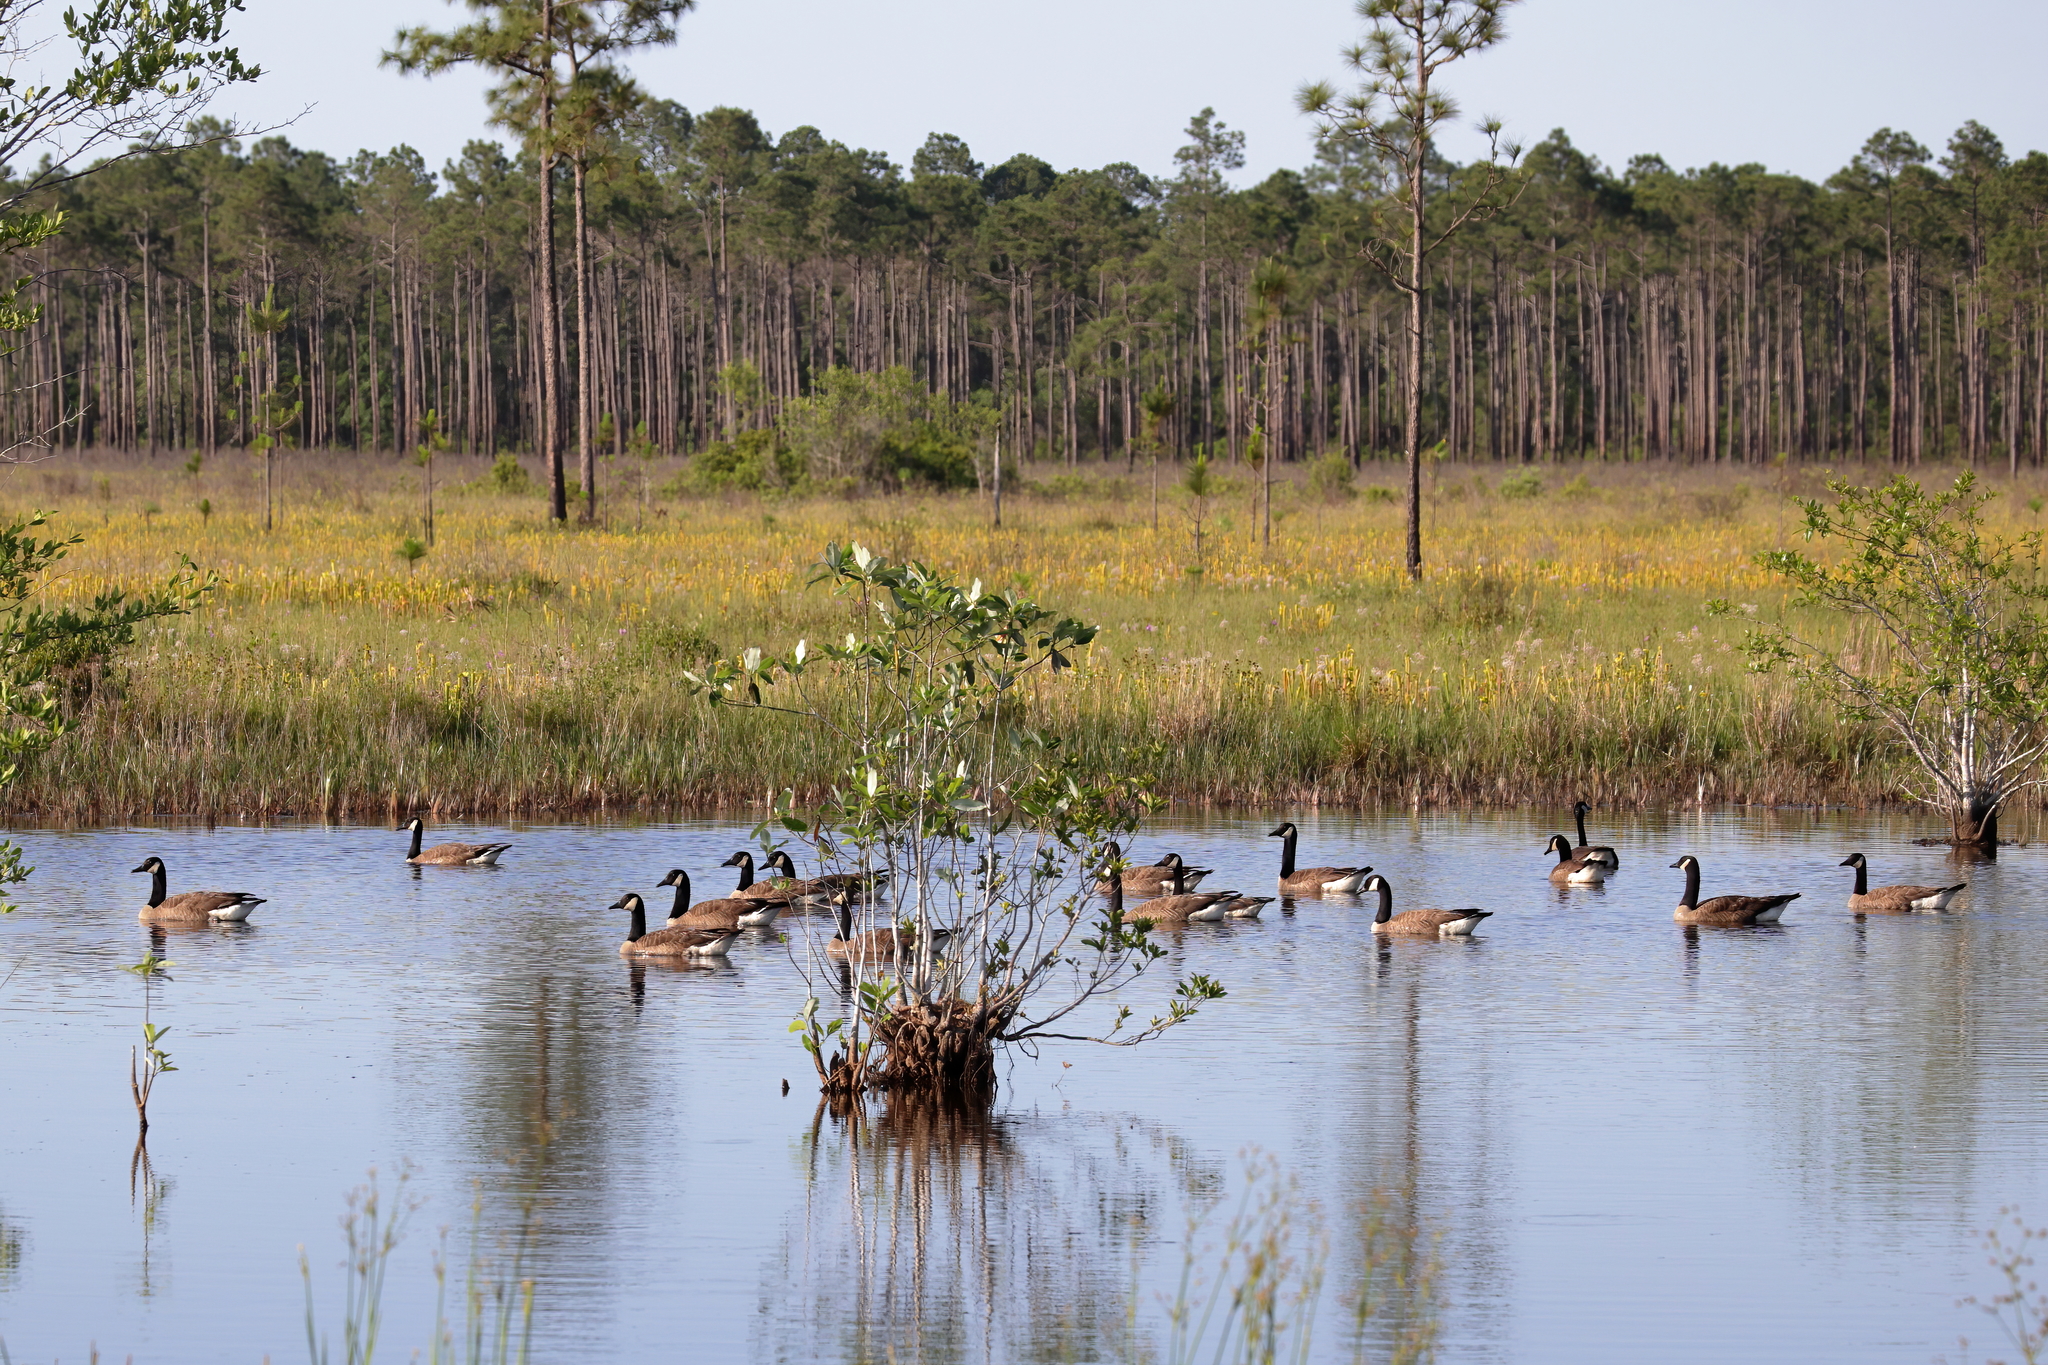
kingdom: Animalia
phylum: Chordata
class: Aves
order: Anseriformes
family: Anatidae
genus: Branta
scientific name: Branta canadensis
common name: Canada goose
